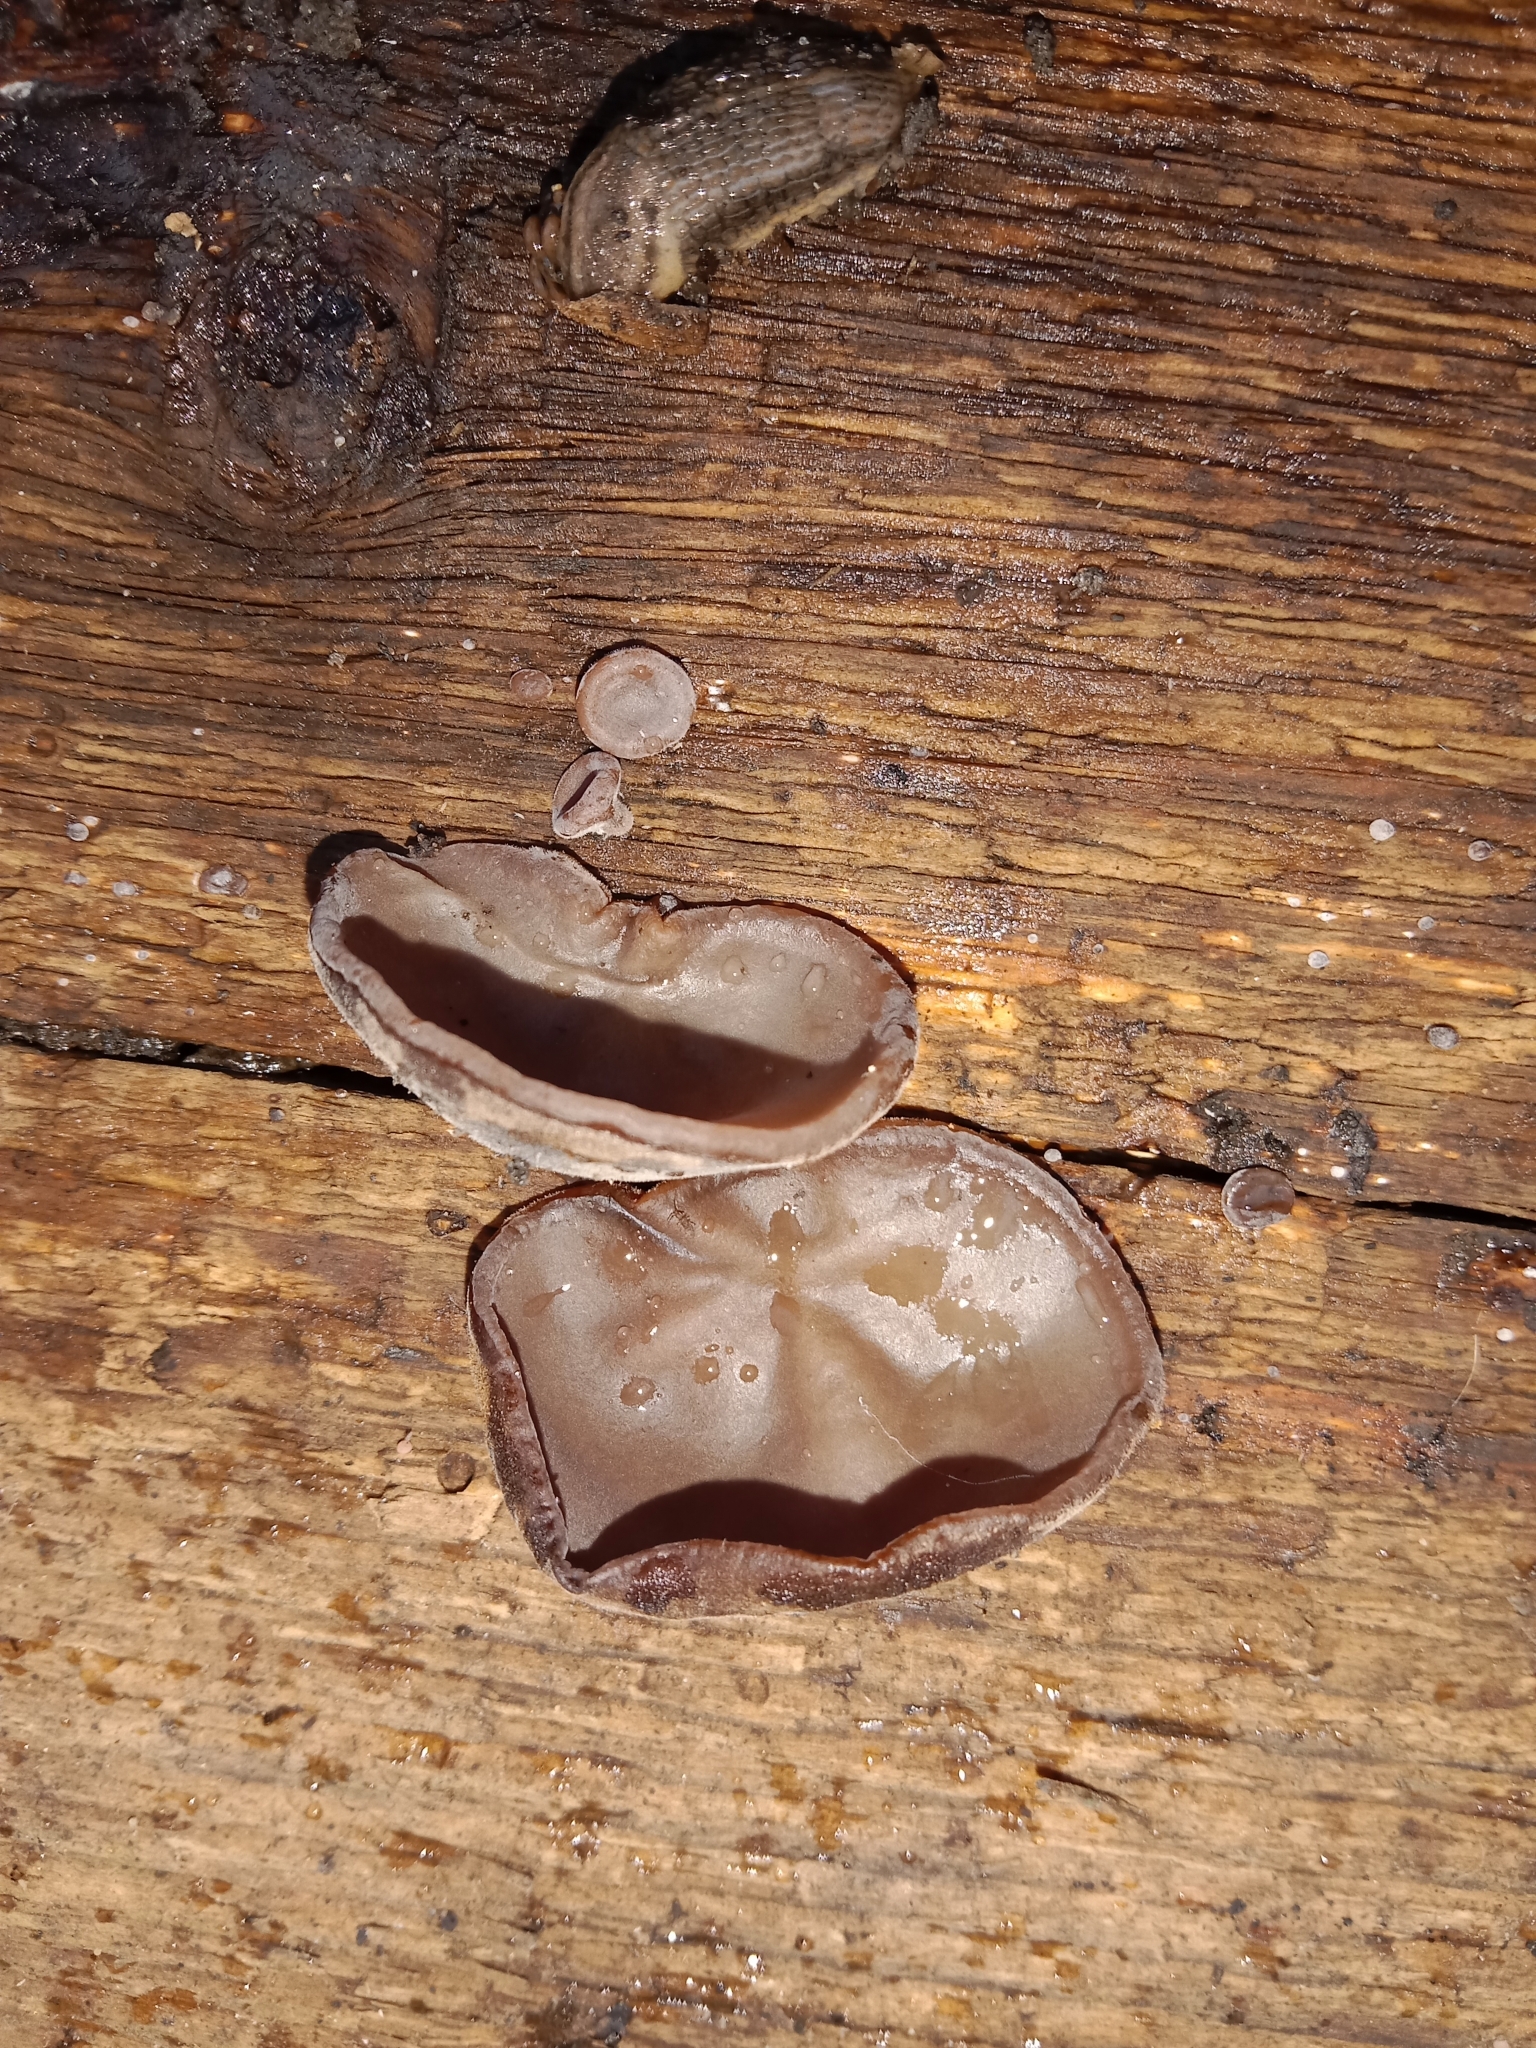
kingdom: Fungi
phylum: Basidiomycota
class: Agaricomycetes
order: Auriculariales
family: Auriculariaceae
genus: Auricularia
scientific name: Auricularia auricula-judae
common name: Jelly ear
